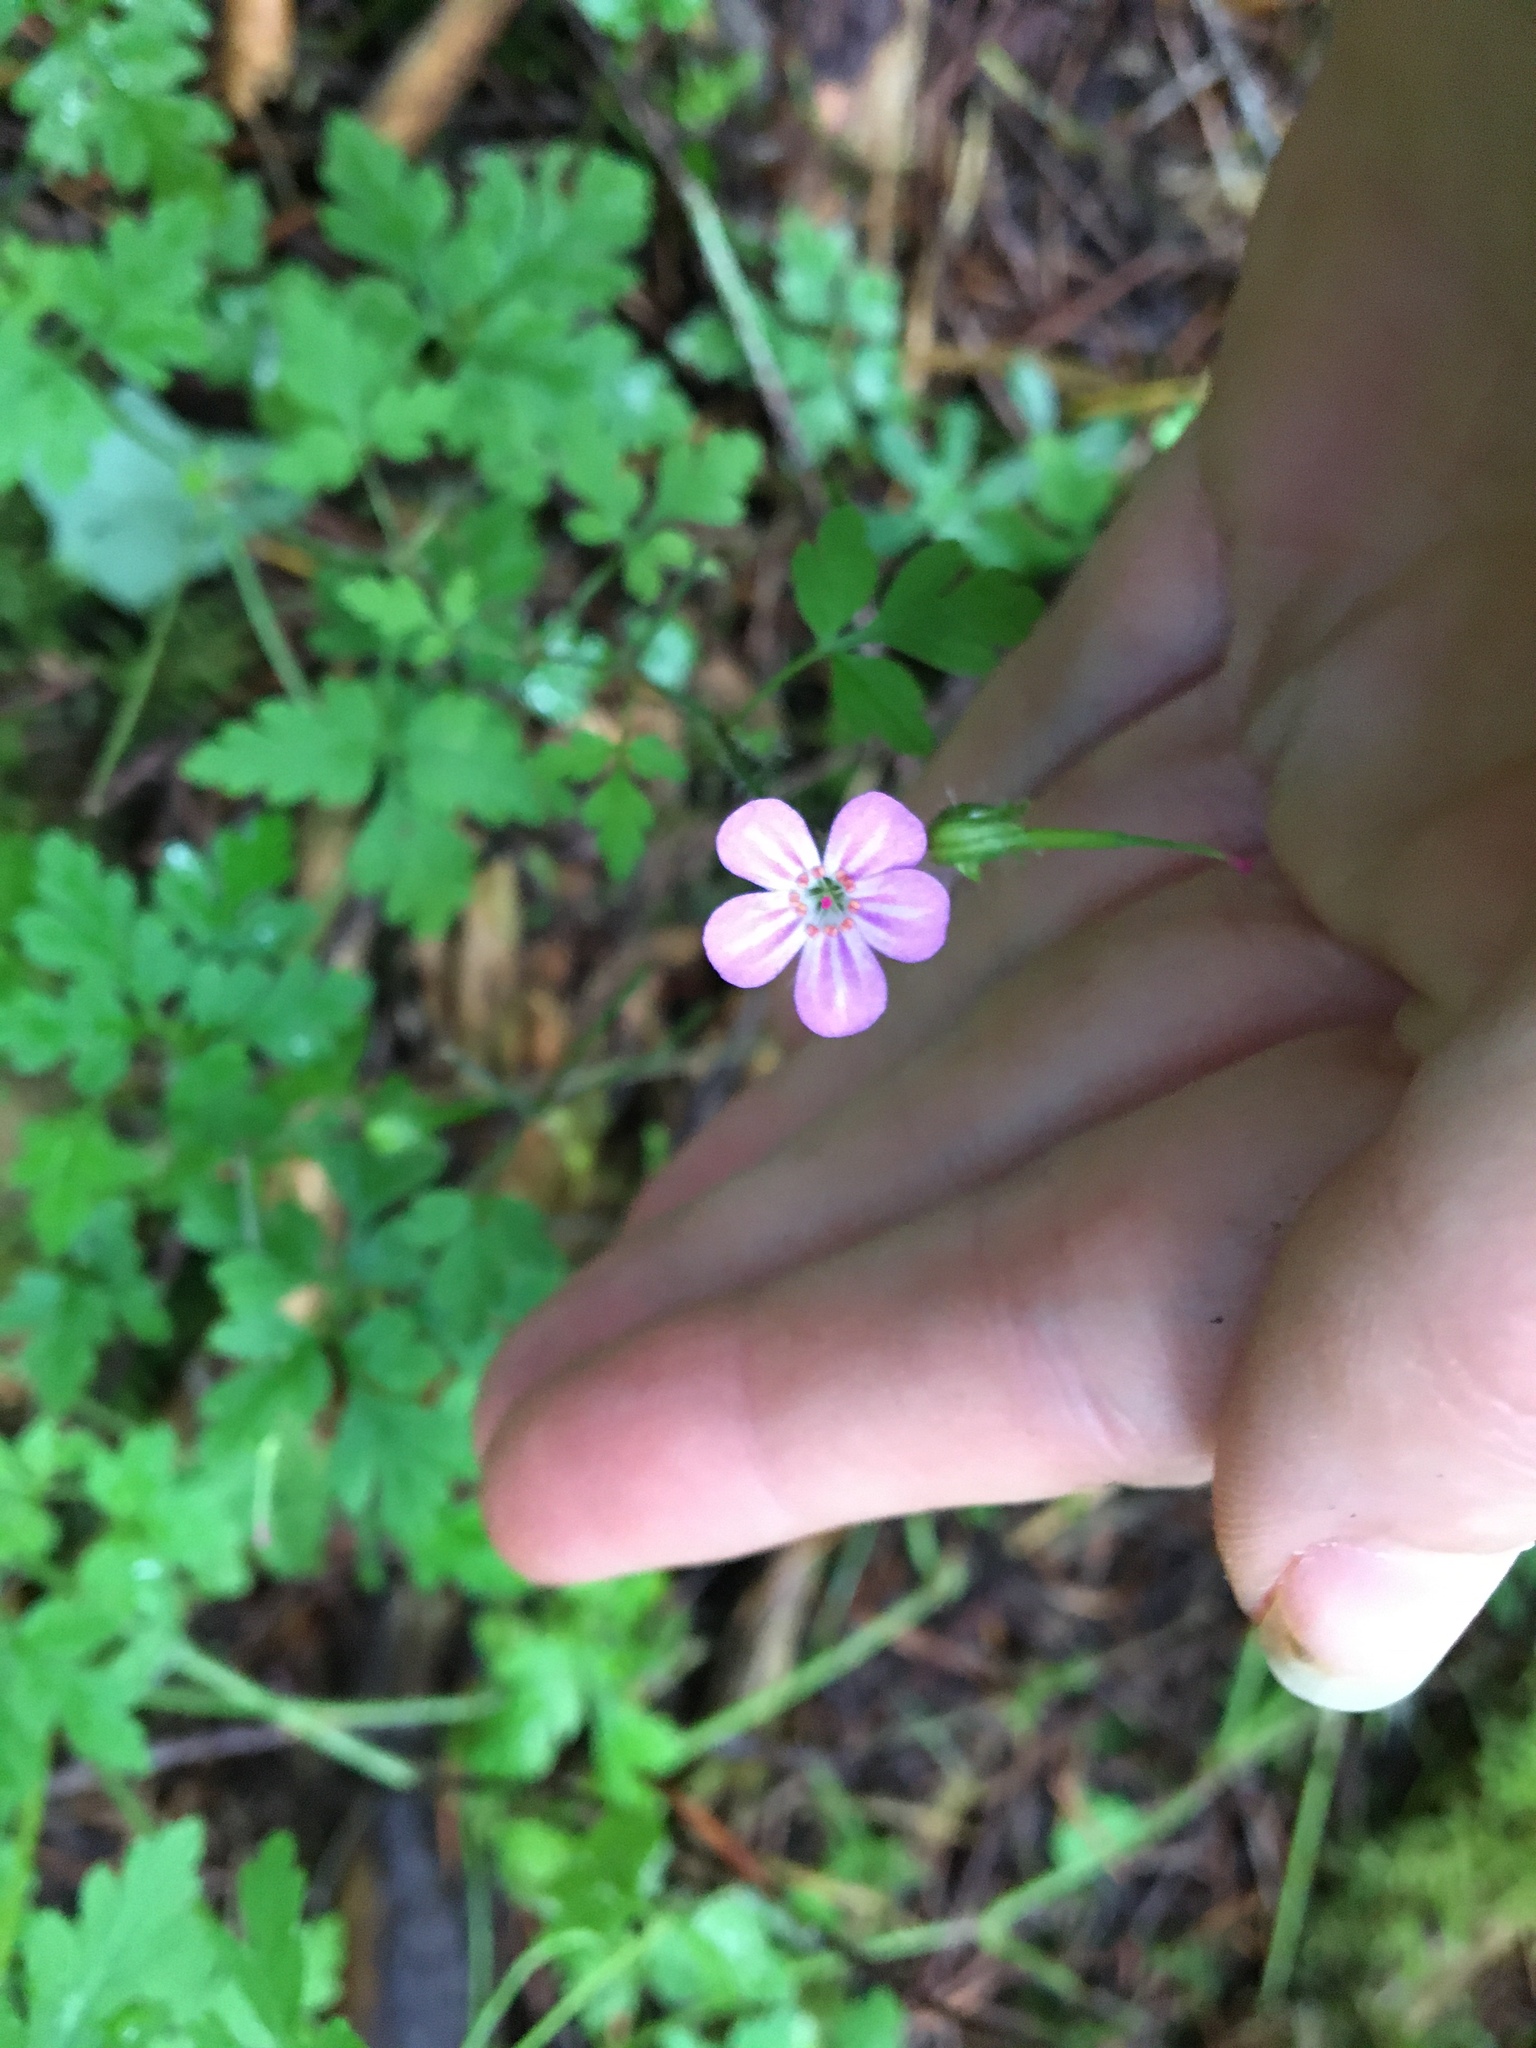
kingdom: Plantae
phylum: Tracheophyta
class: Magnoliopsida
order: Geraniales
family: Geraniaceae
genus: Geranium
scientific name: Geranium robertianum
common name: Herb-robert
